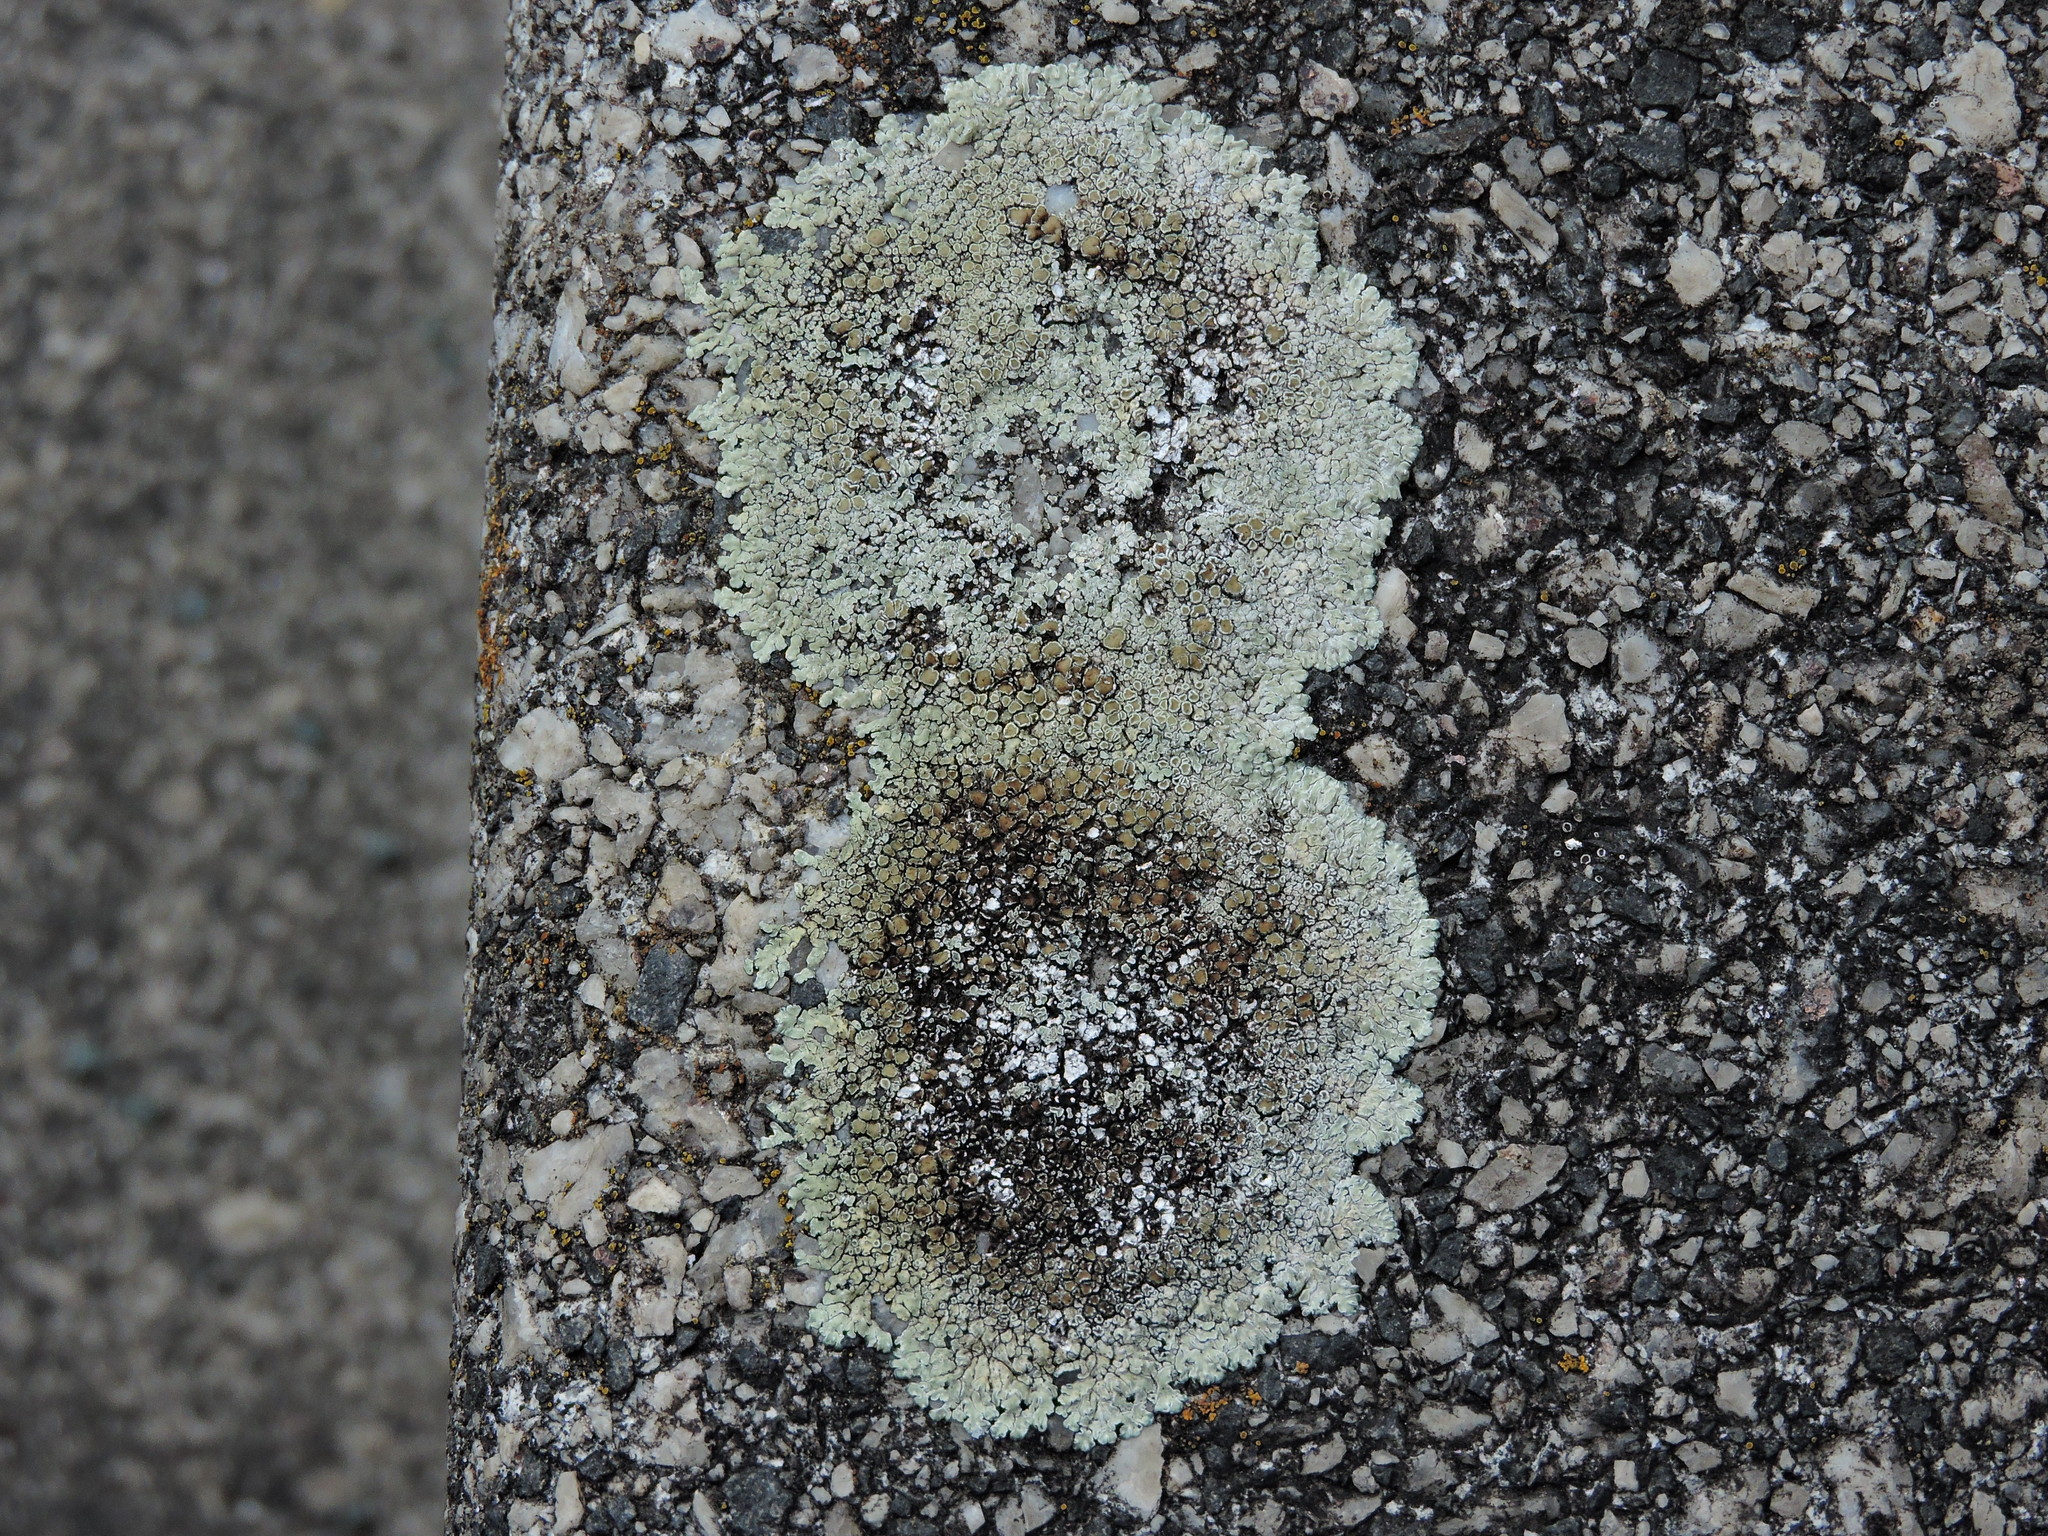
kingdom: Fungi
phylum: Ascomycota
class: Lecanoromycetes
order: Lecanorales
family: Lecanoraceae
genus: Protoparmeliopsis
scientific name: Protoparmeliopsis muralis
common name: Stonewall rim lichen
